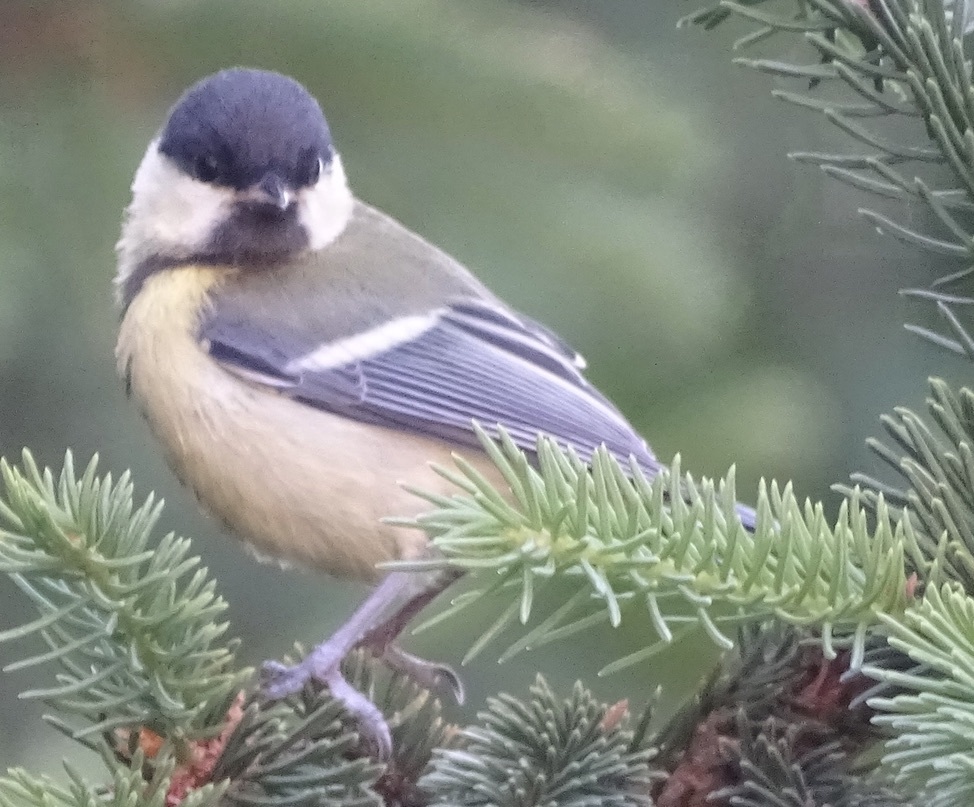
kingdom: Animalia
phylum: Chordata
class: Aves
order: Passeriformes
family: Paridae
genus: Parus
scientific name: Parus major
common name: Great tit
